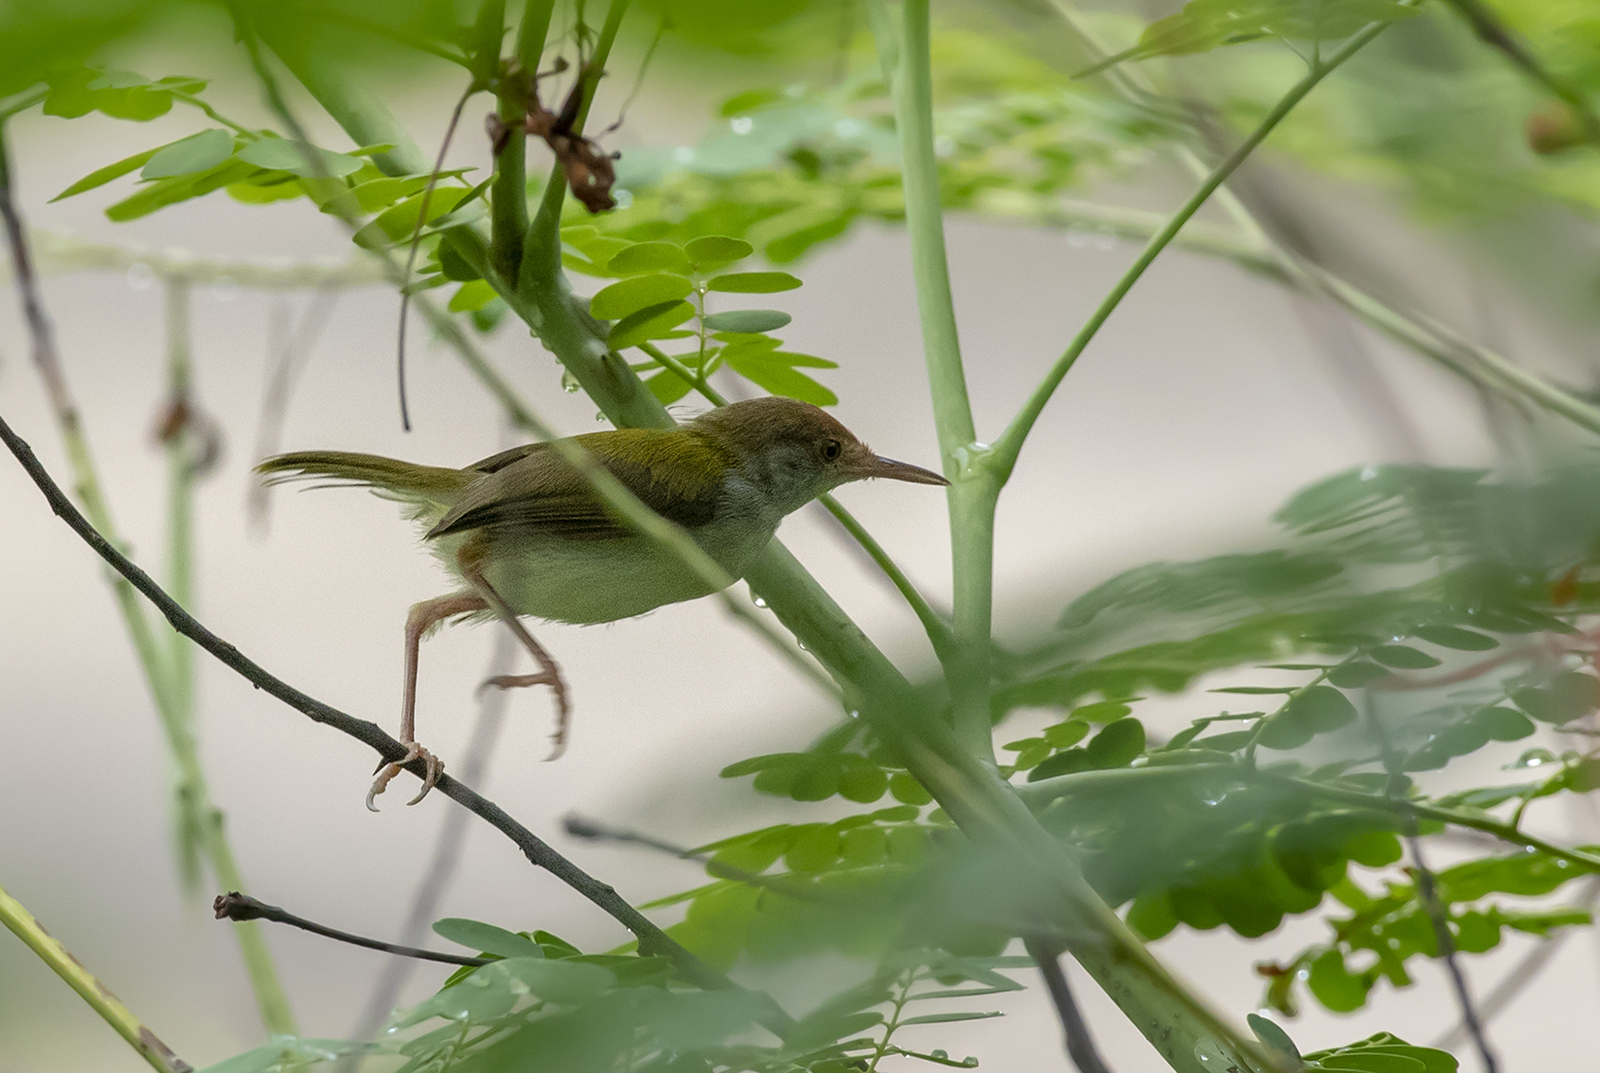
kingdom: Animalia
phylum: Chordata
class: Aves
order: Passeriformes
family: Cisticolidae
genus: Orthotomus
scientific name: Orthotomus sutorius
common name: Common tailorbird
